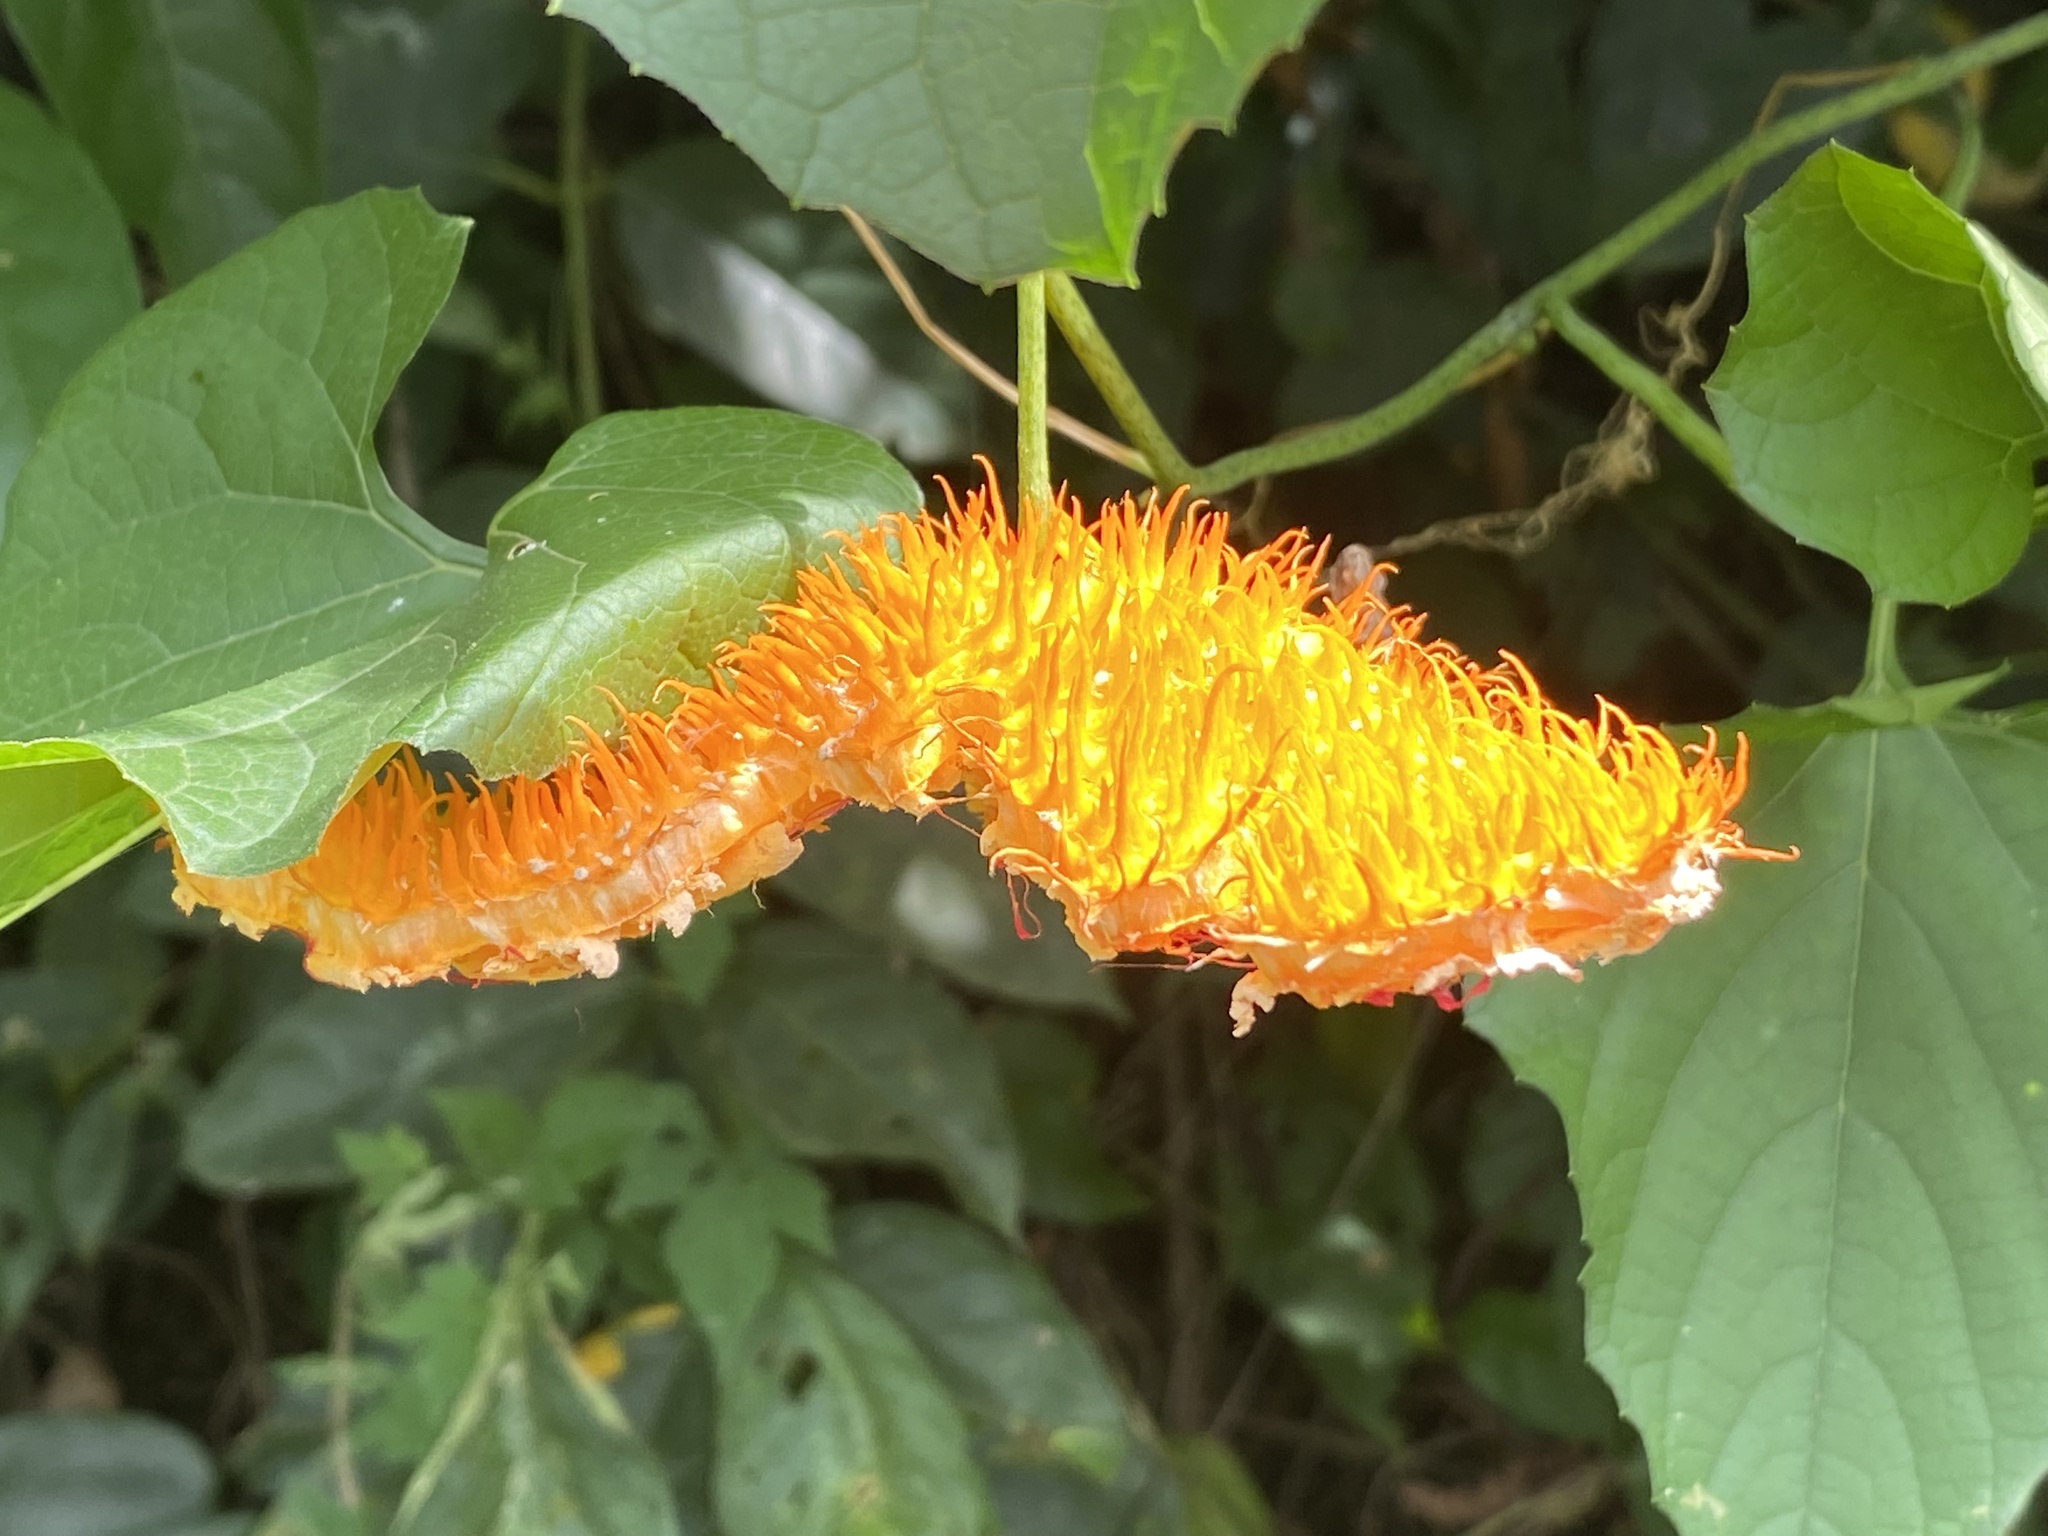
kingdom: Plantae
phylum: Tracheophyta
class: Magnoliopsida
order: Cucurbitales
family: Cucurbitaceae
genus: Momordica
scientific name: Momordica foetida
